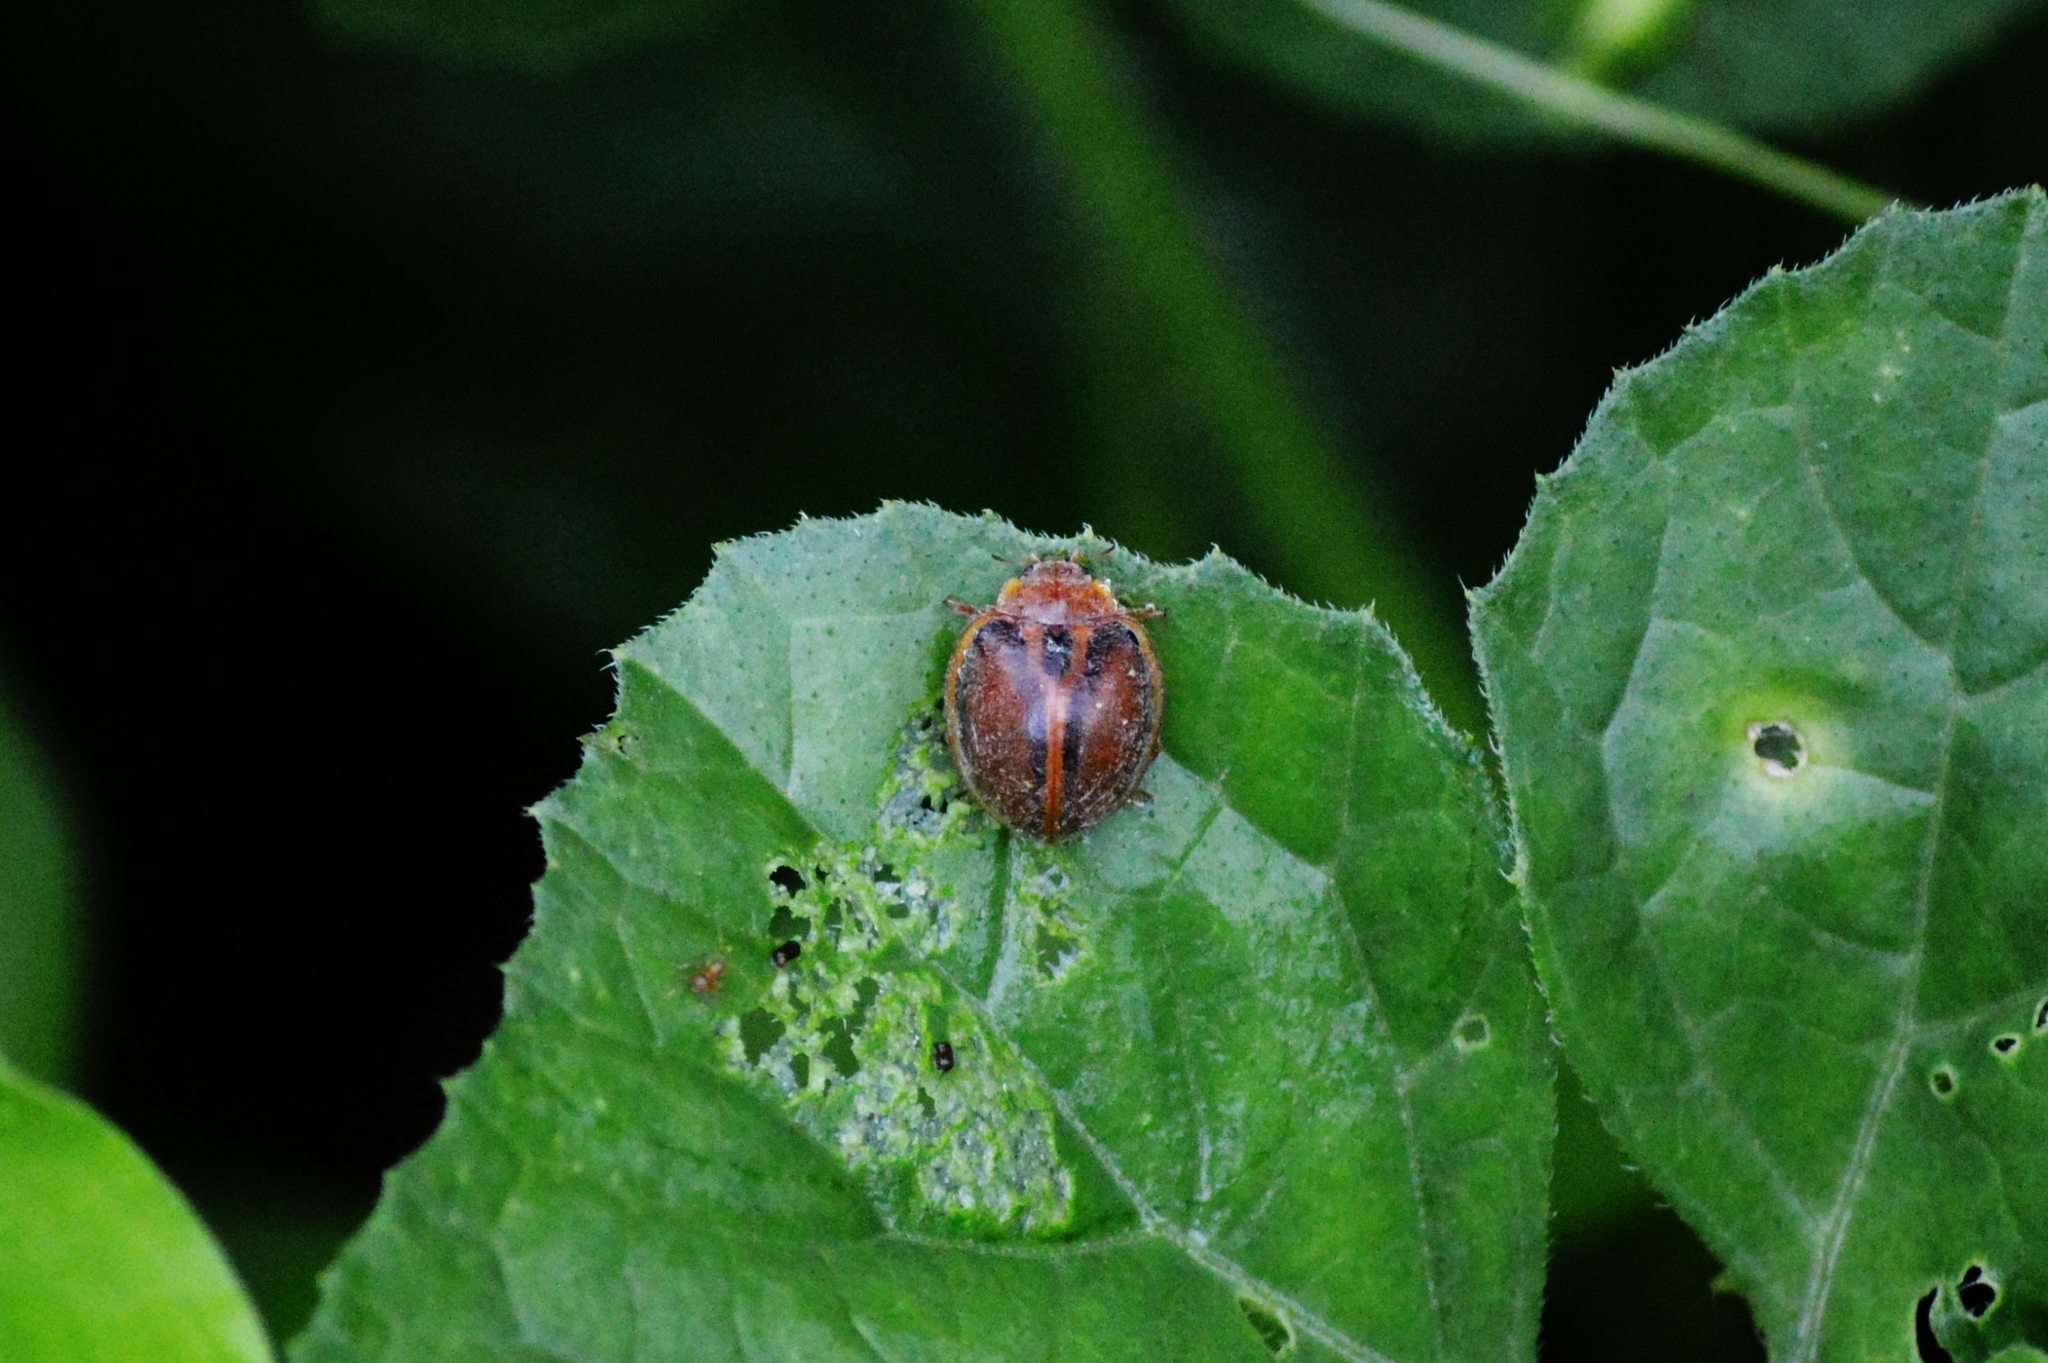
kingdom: Animalia
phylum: Arthropoda
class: Insecta
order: Coleoptera
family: Coccinellidae
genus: Epilachna
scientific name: Epilachna cacica
